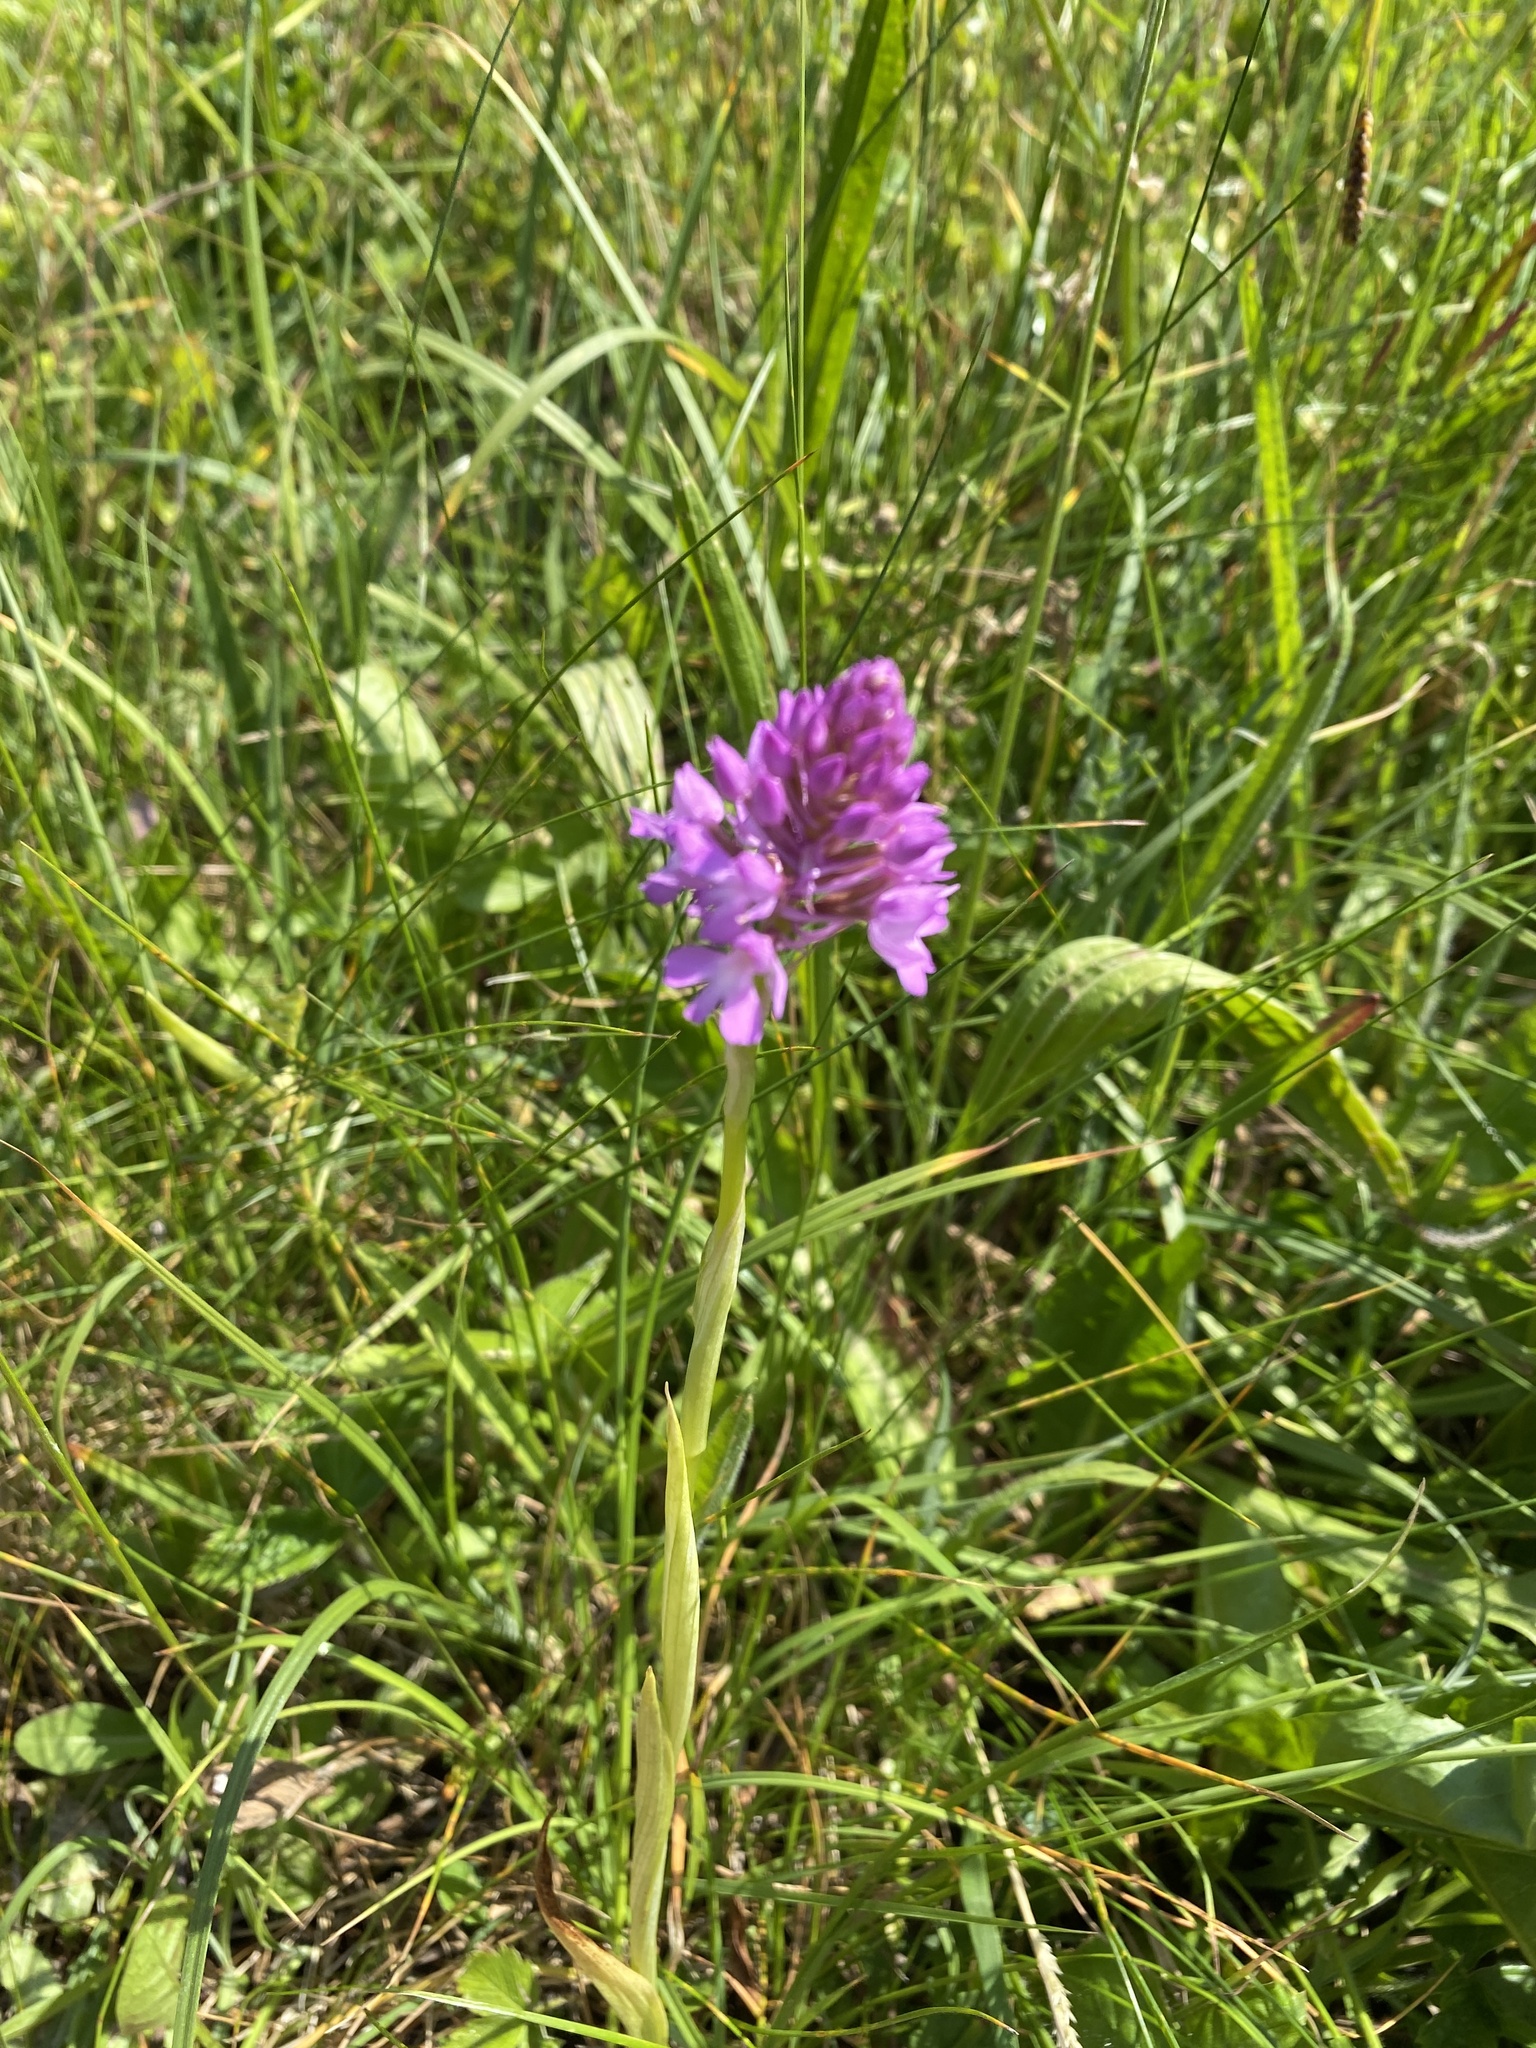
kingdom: Plantae
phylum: Tracheophyta
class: Liliopsida
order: Asparagales
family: Orchidaceae
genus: Anacamptis
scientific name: Anacamptis pyramidalis
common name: Pyramidal orchid
